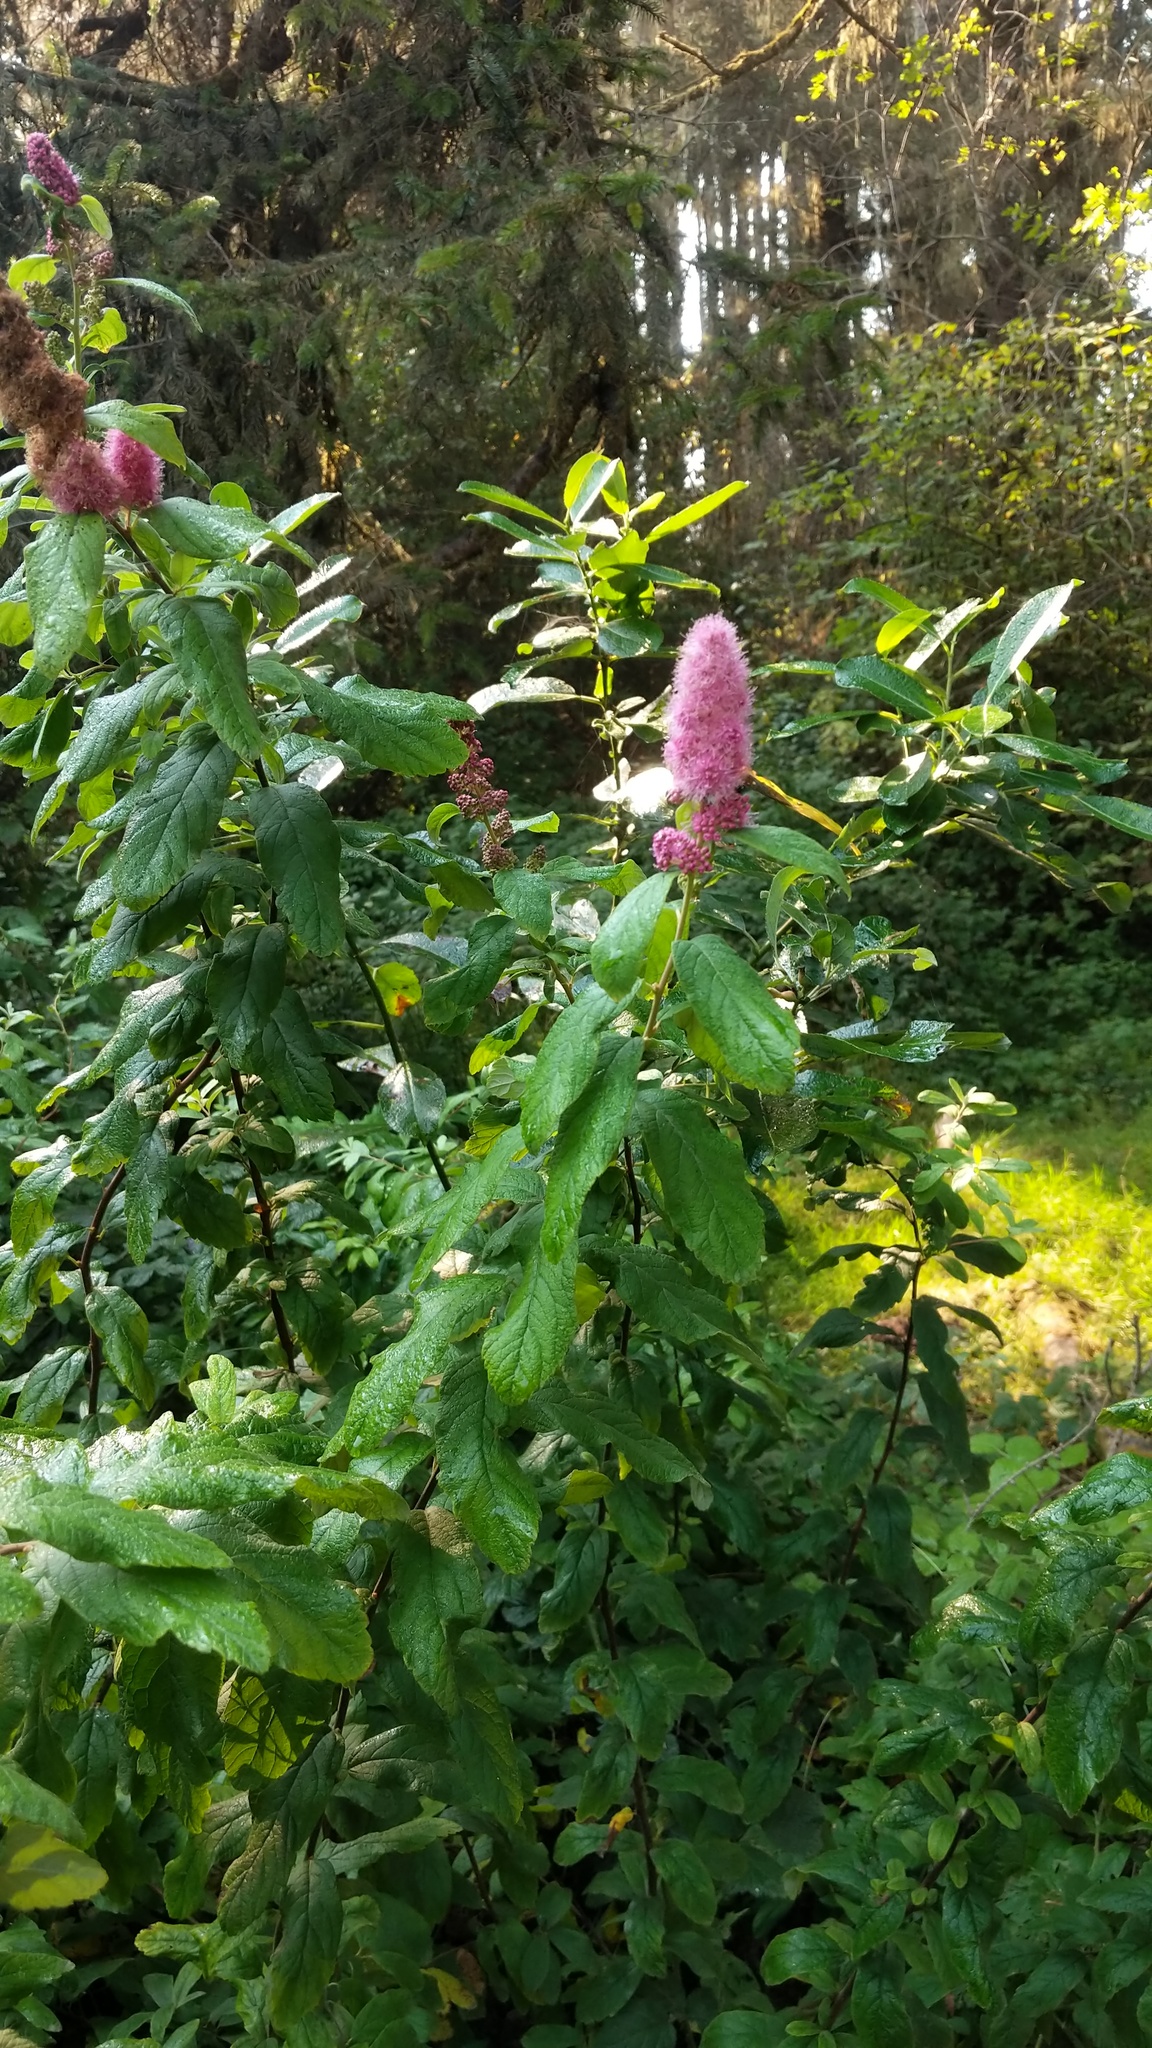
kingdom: Plantae
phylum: Tracheophyta
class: Magnoliopsida
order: Rosales
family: Rosaceae
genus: Spiraea
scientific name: Spiraea douglasii
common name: Steeplebush
